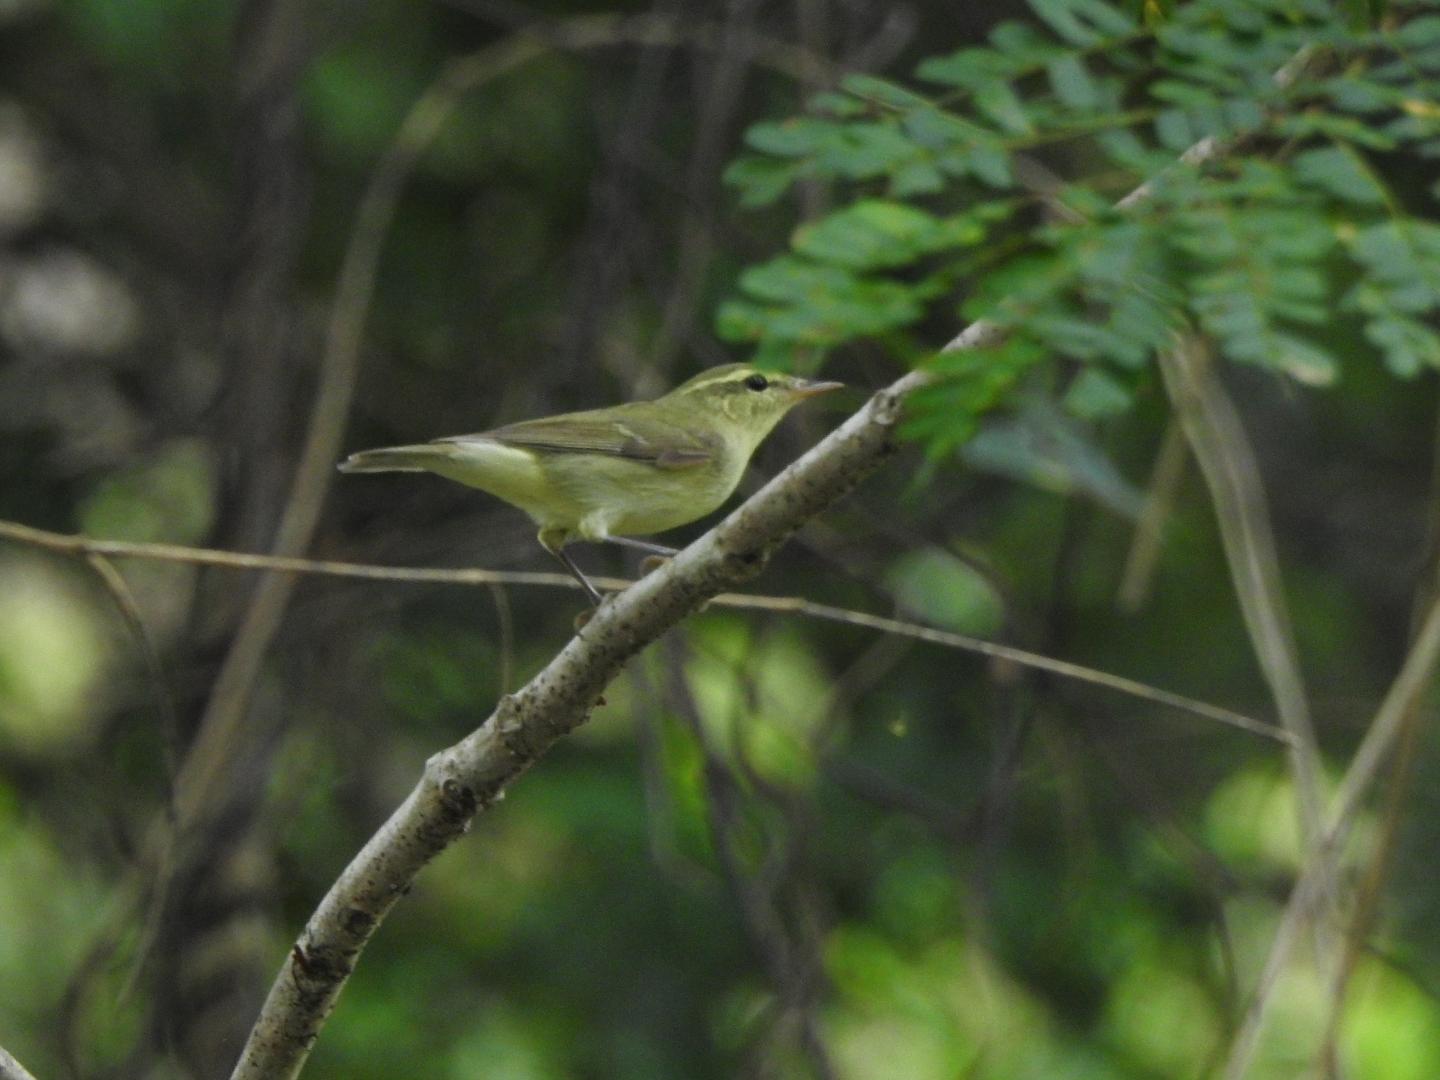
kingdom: Animalia
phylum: Chordata
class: Aves
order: Passeriformes
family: Phylloscopidae
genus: Phylloscopus
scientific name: Phylloscopus nitidus
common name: Green warbler
